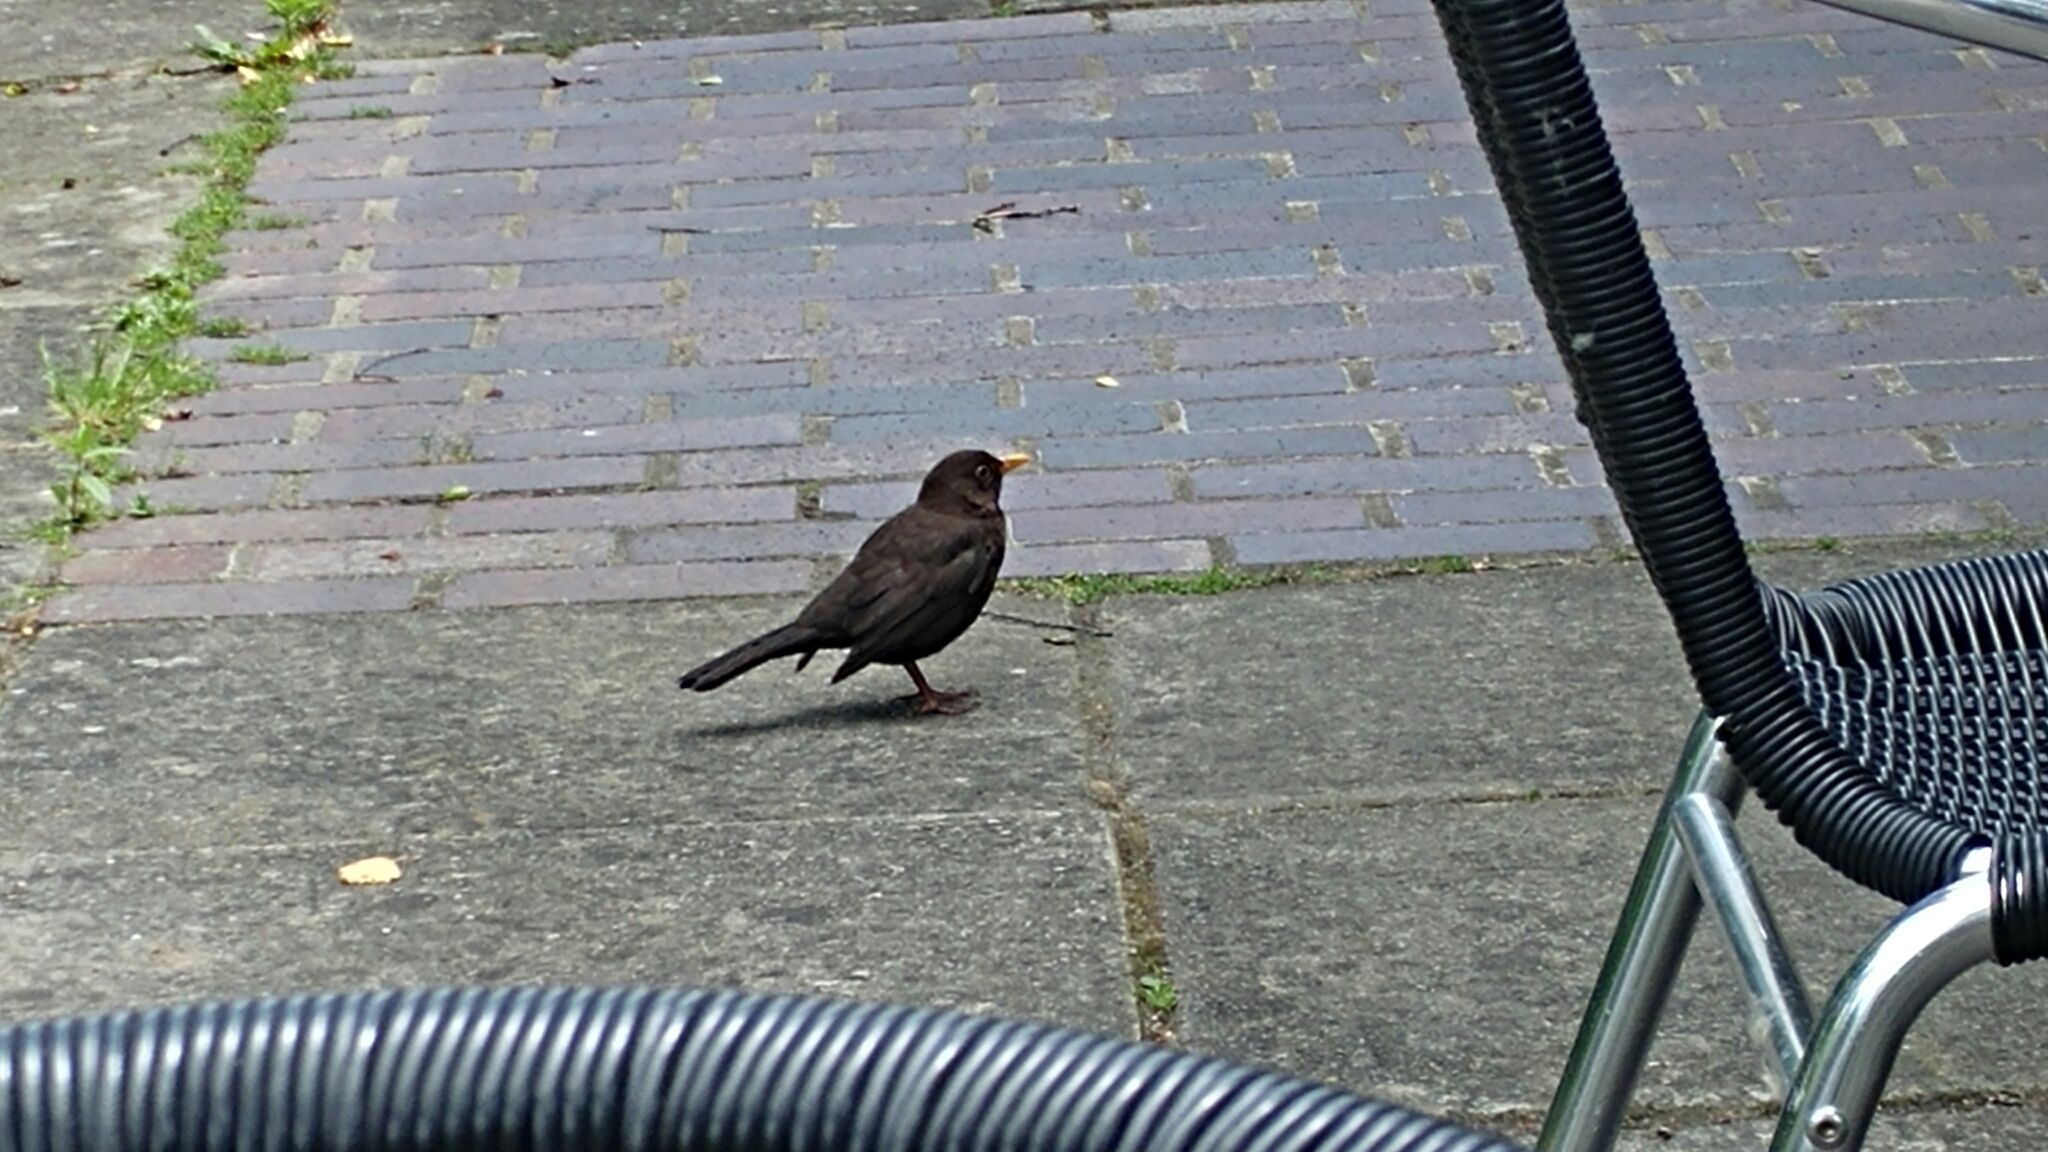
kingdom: Animalia
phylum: Chordata
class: Aves
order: Passeriformes
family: Turdidae
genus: Turdus
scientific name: Turdus merula
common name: Common blackbird
